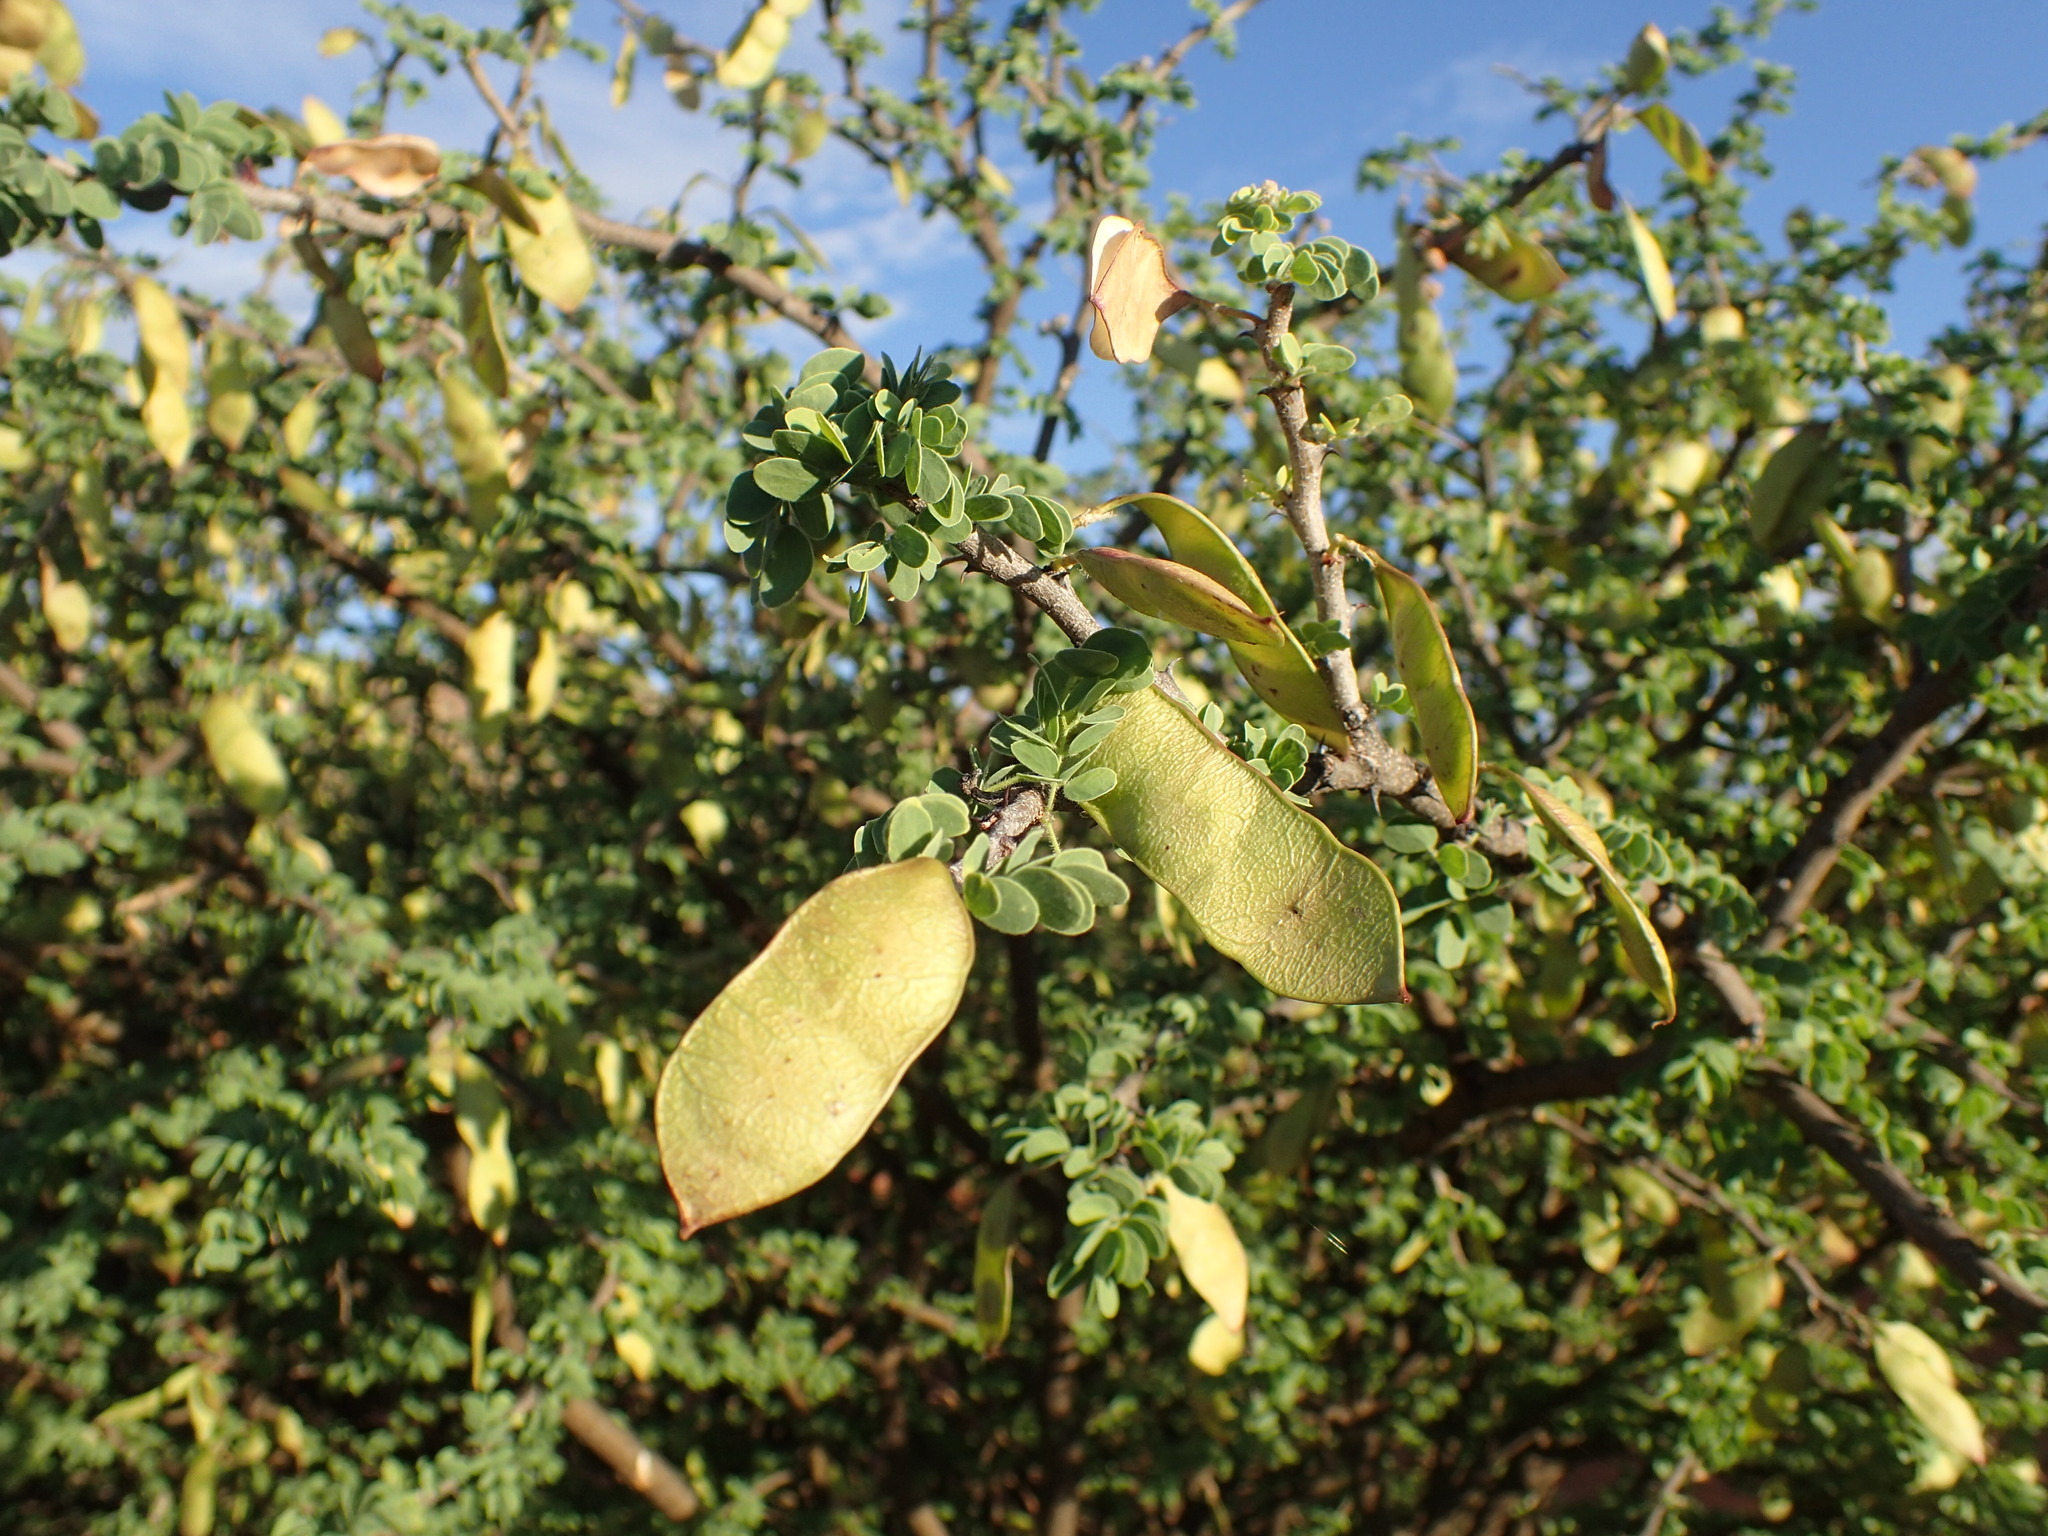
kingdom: Plantae
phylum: Tracheophyta
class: Magnoliopsida
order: Fabales
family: Fabaceae
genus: Senegalia
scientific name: Senegalia mellifera
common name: Hookthorn
